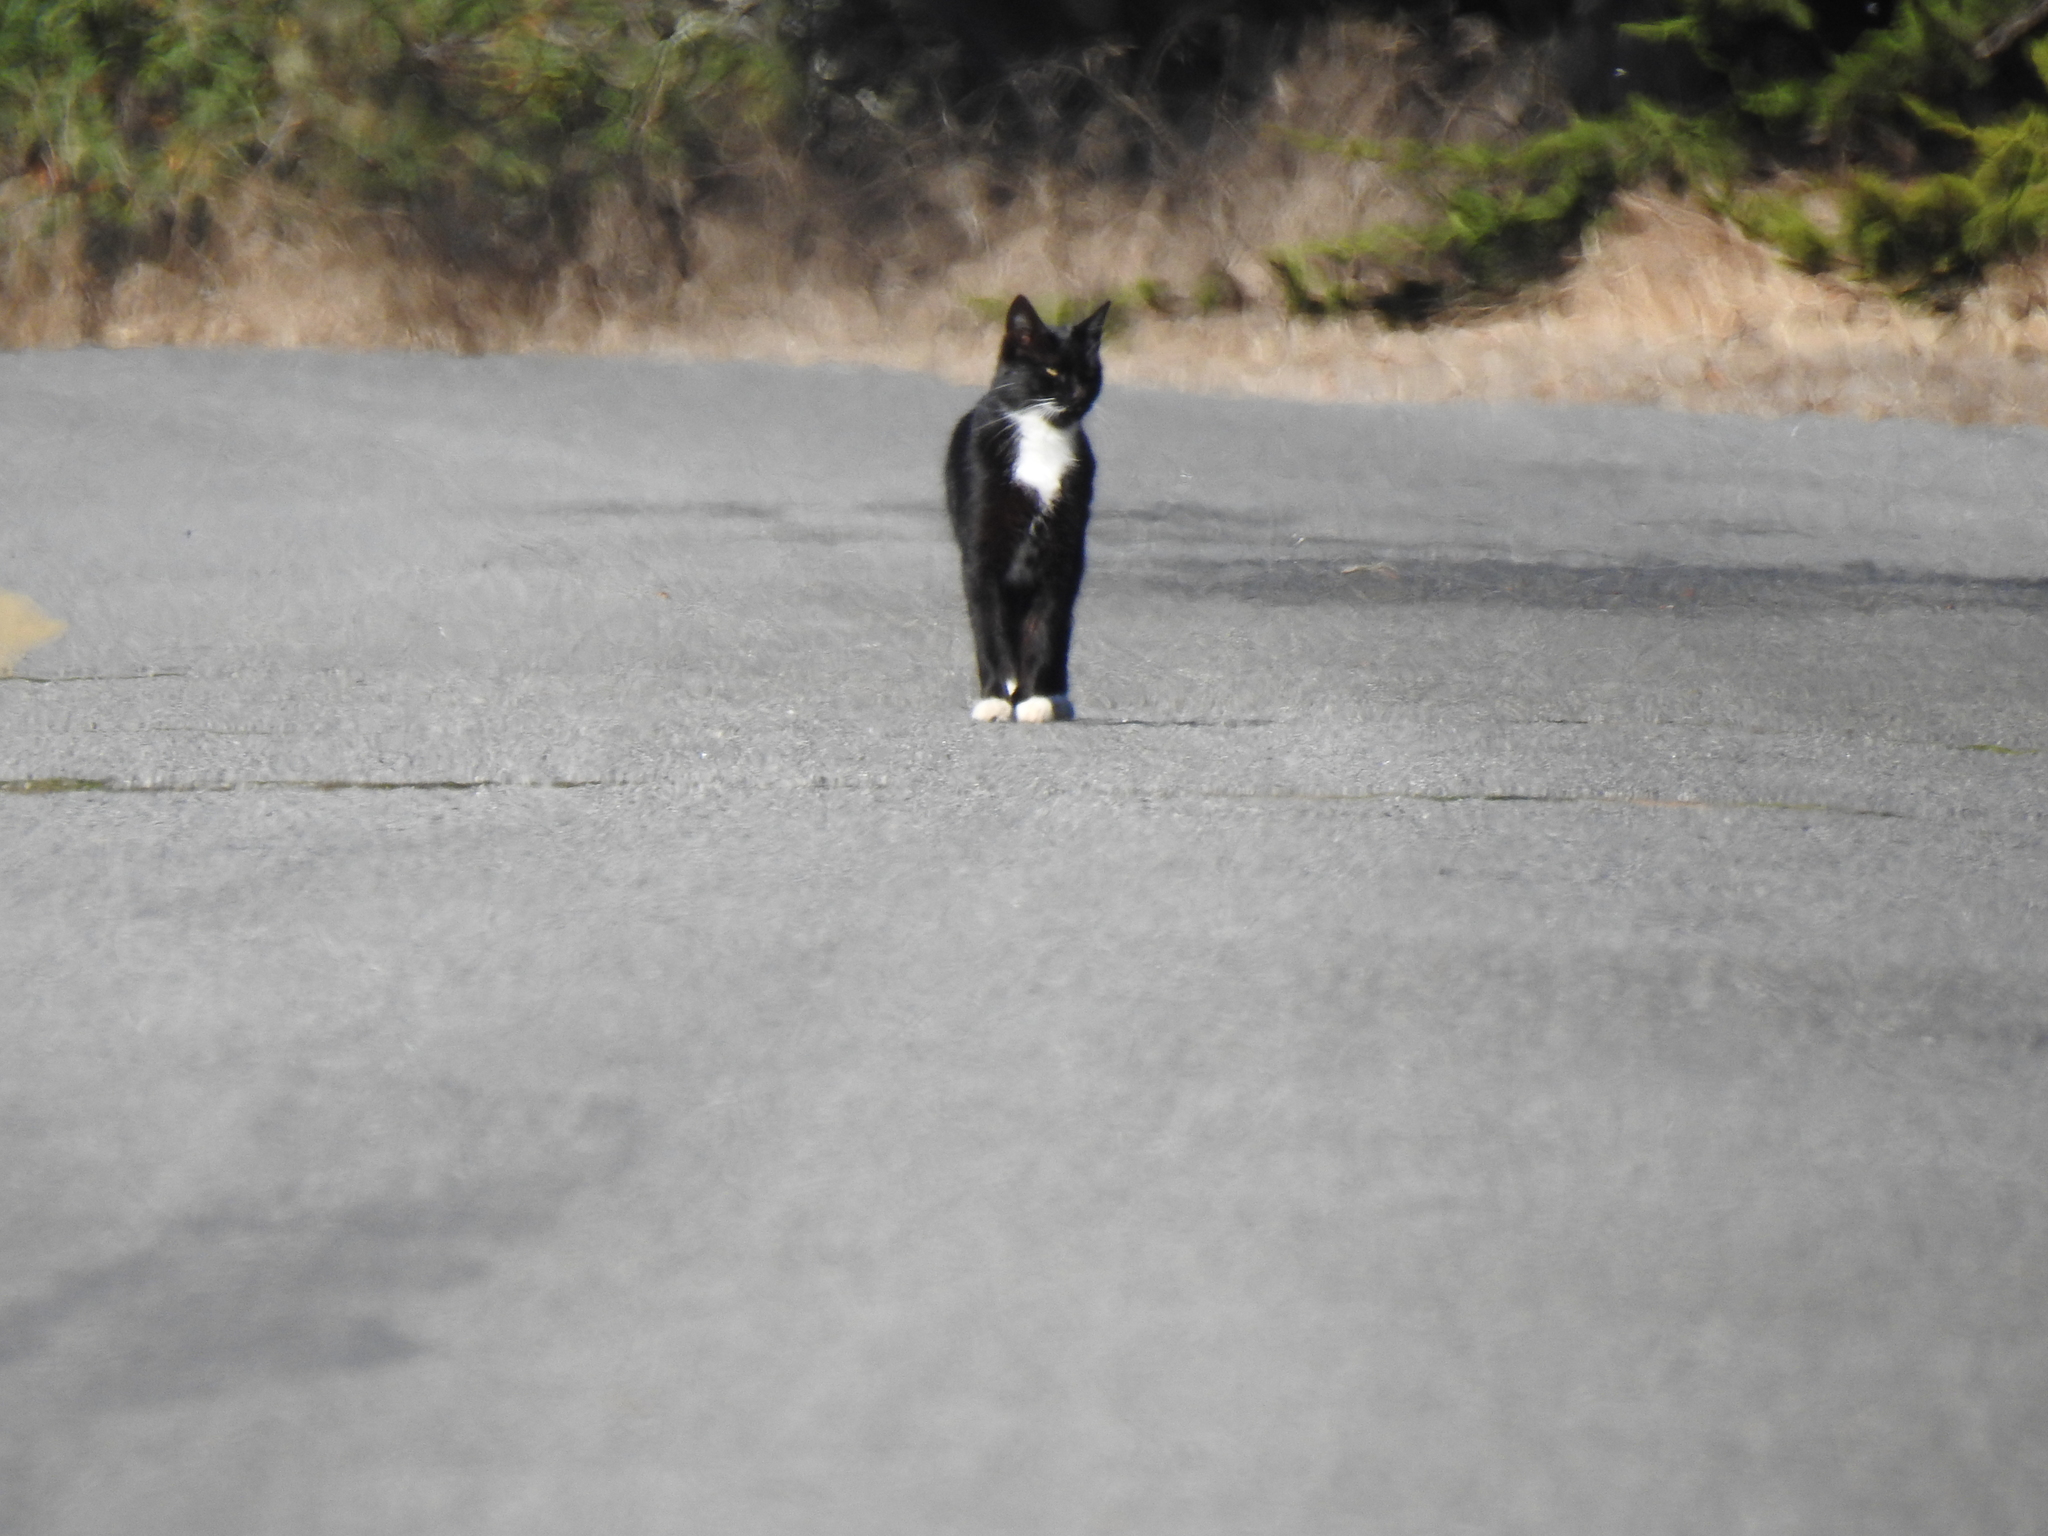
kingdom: Animalia
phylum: Chordata
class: Mammalia
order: Carnivora
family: Felidae
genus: Felis
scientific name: Felis catus
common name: Domestic cat
